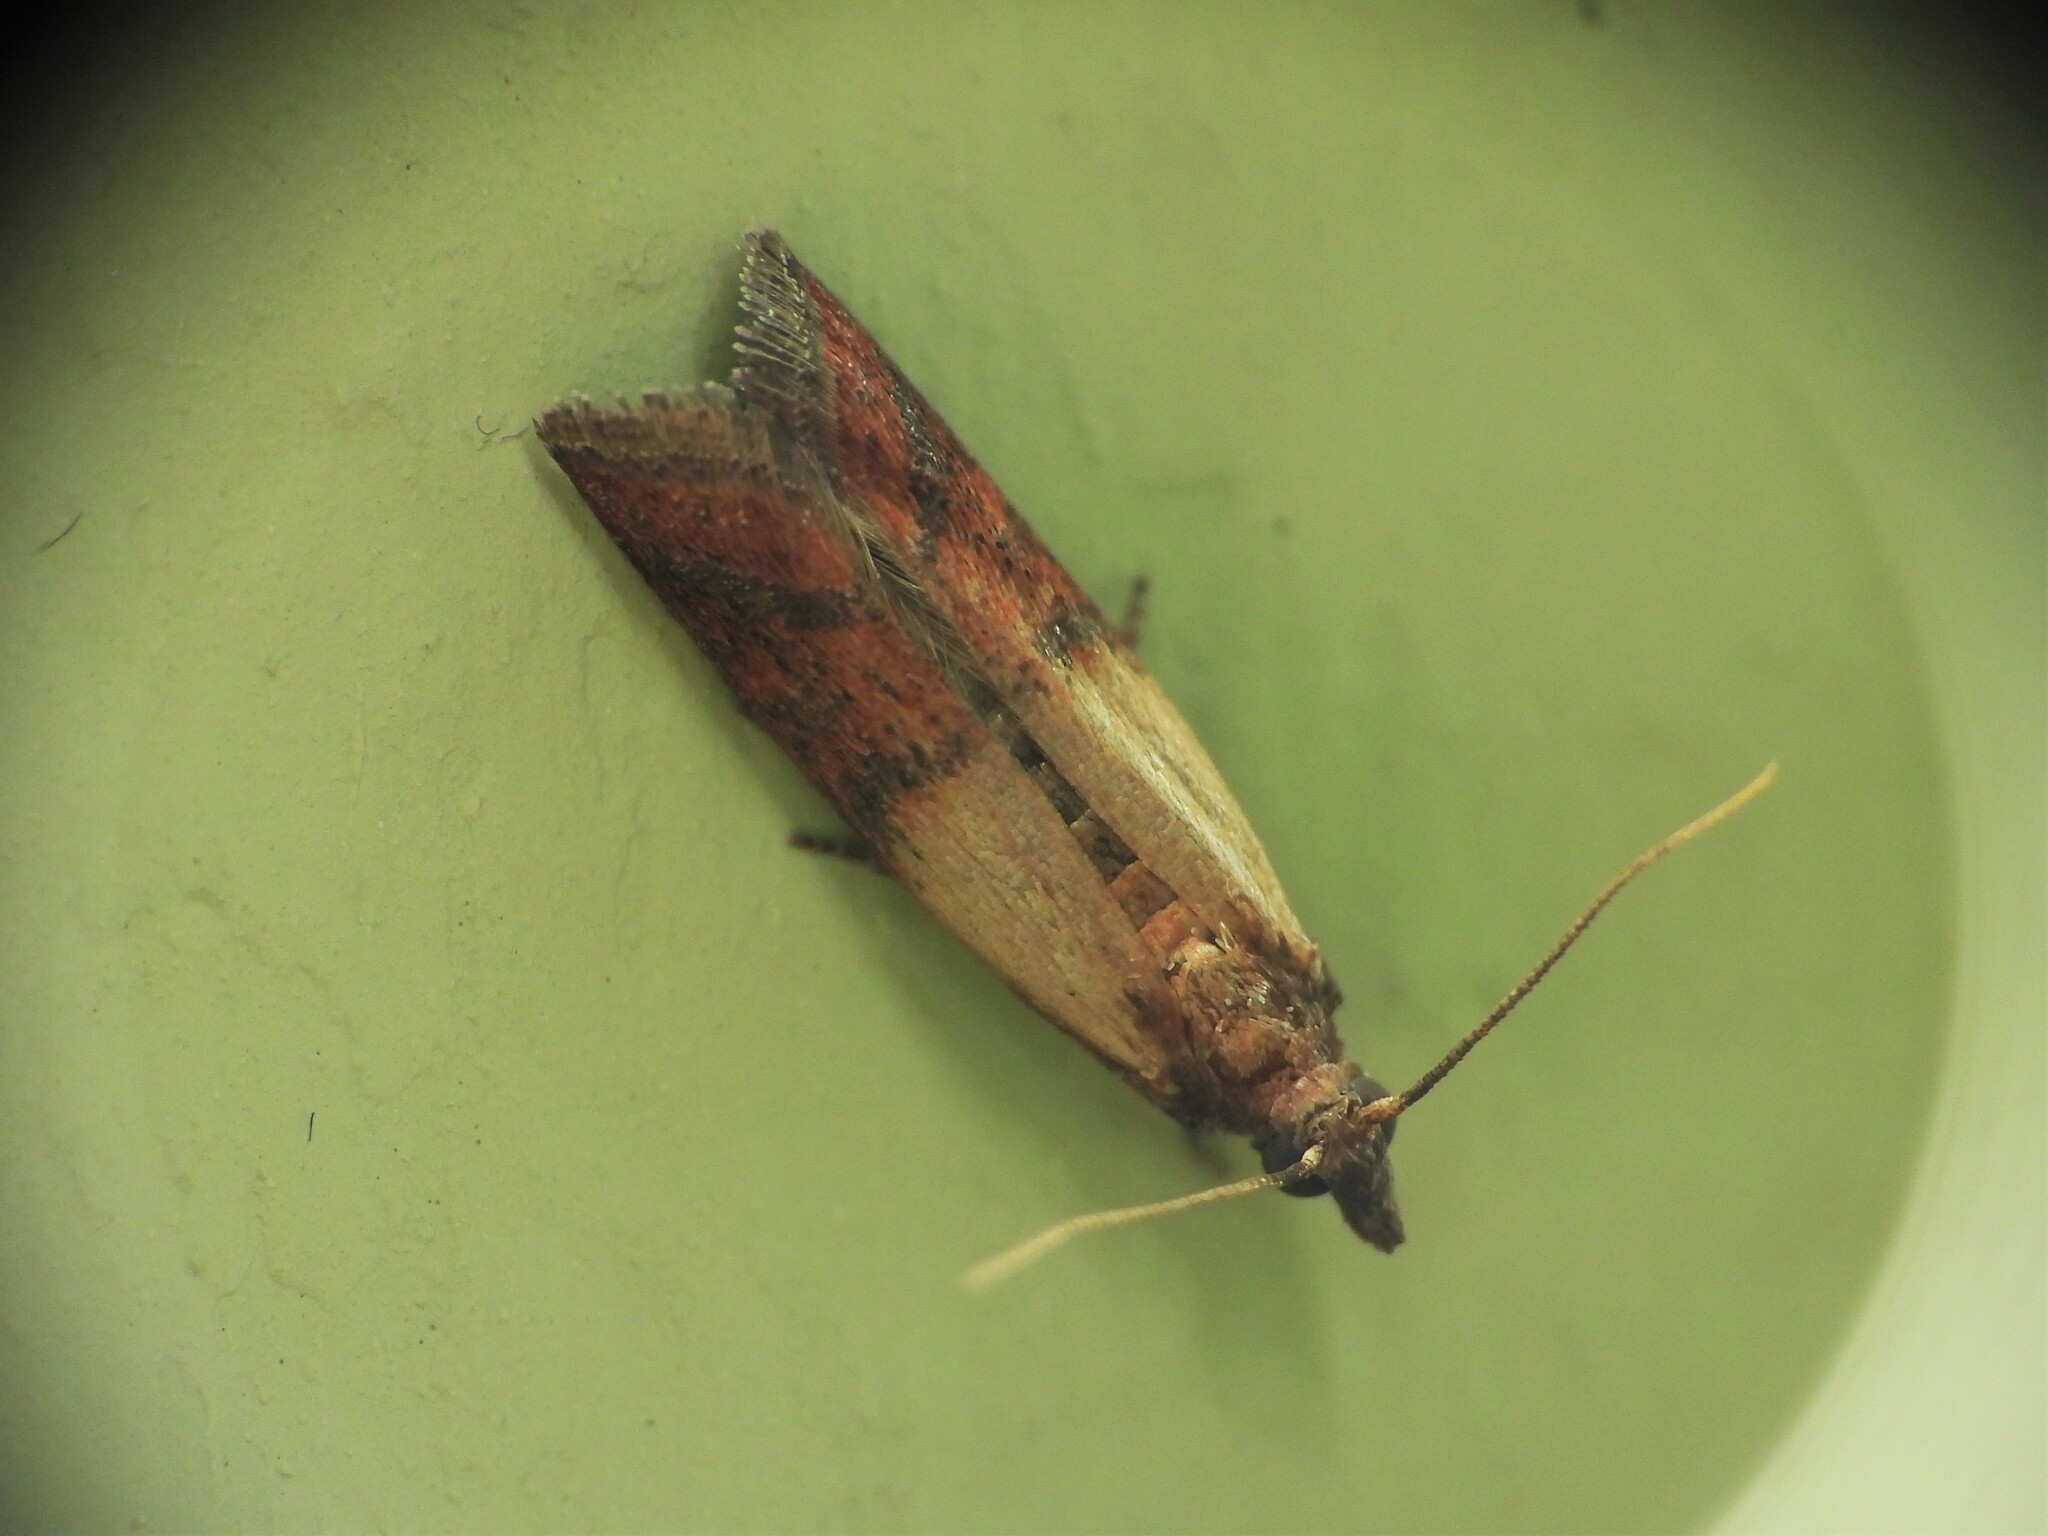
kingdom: Animalia
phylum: Arthropoda
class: Insecta
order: Lepidoptera
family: Pyralidae
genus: Plodia
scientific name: Plodia interpunctella
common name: Indian meal moth
